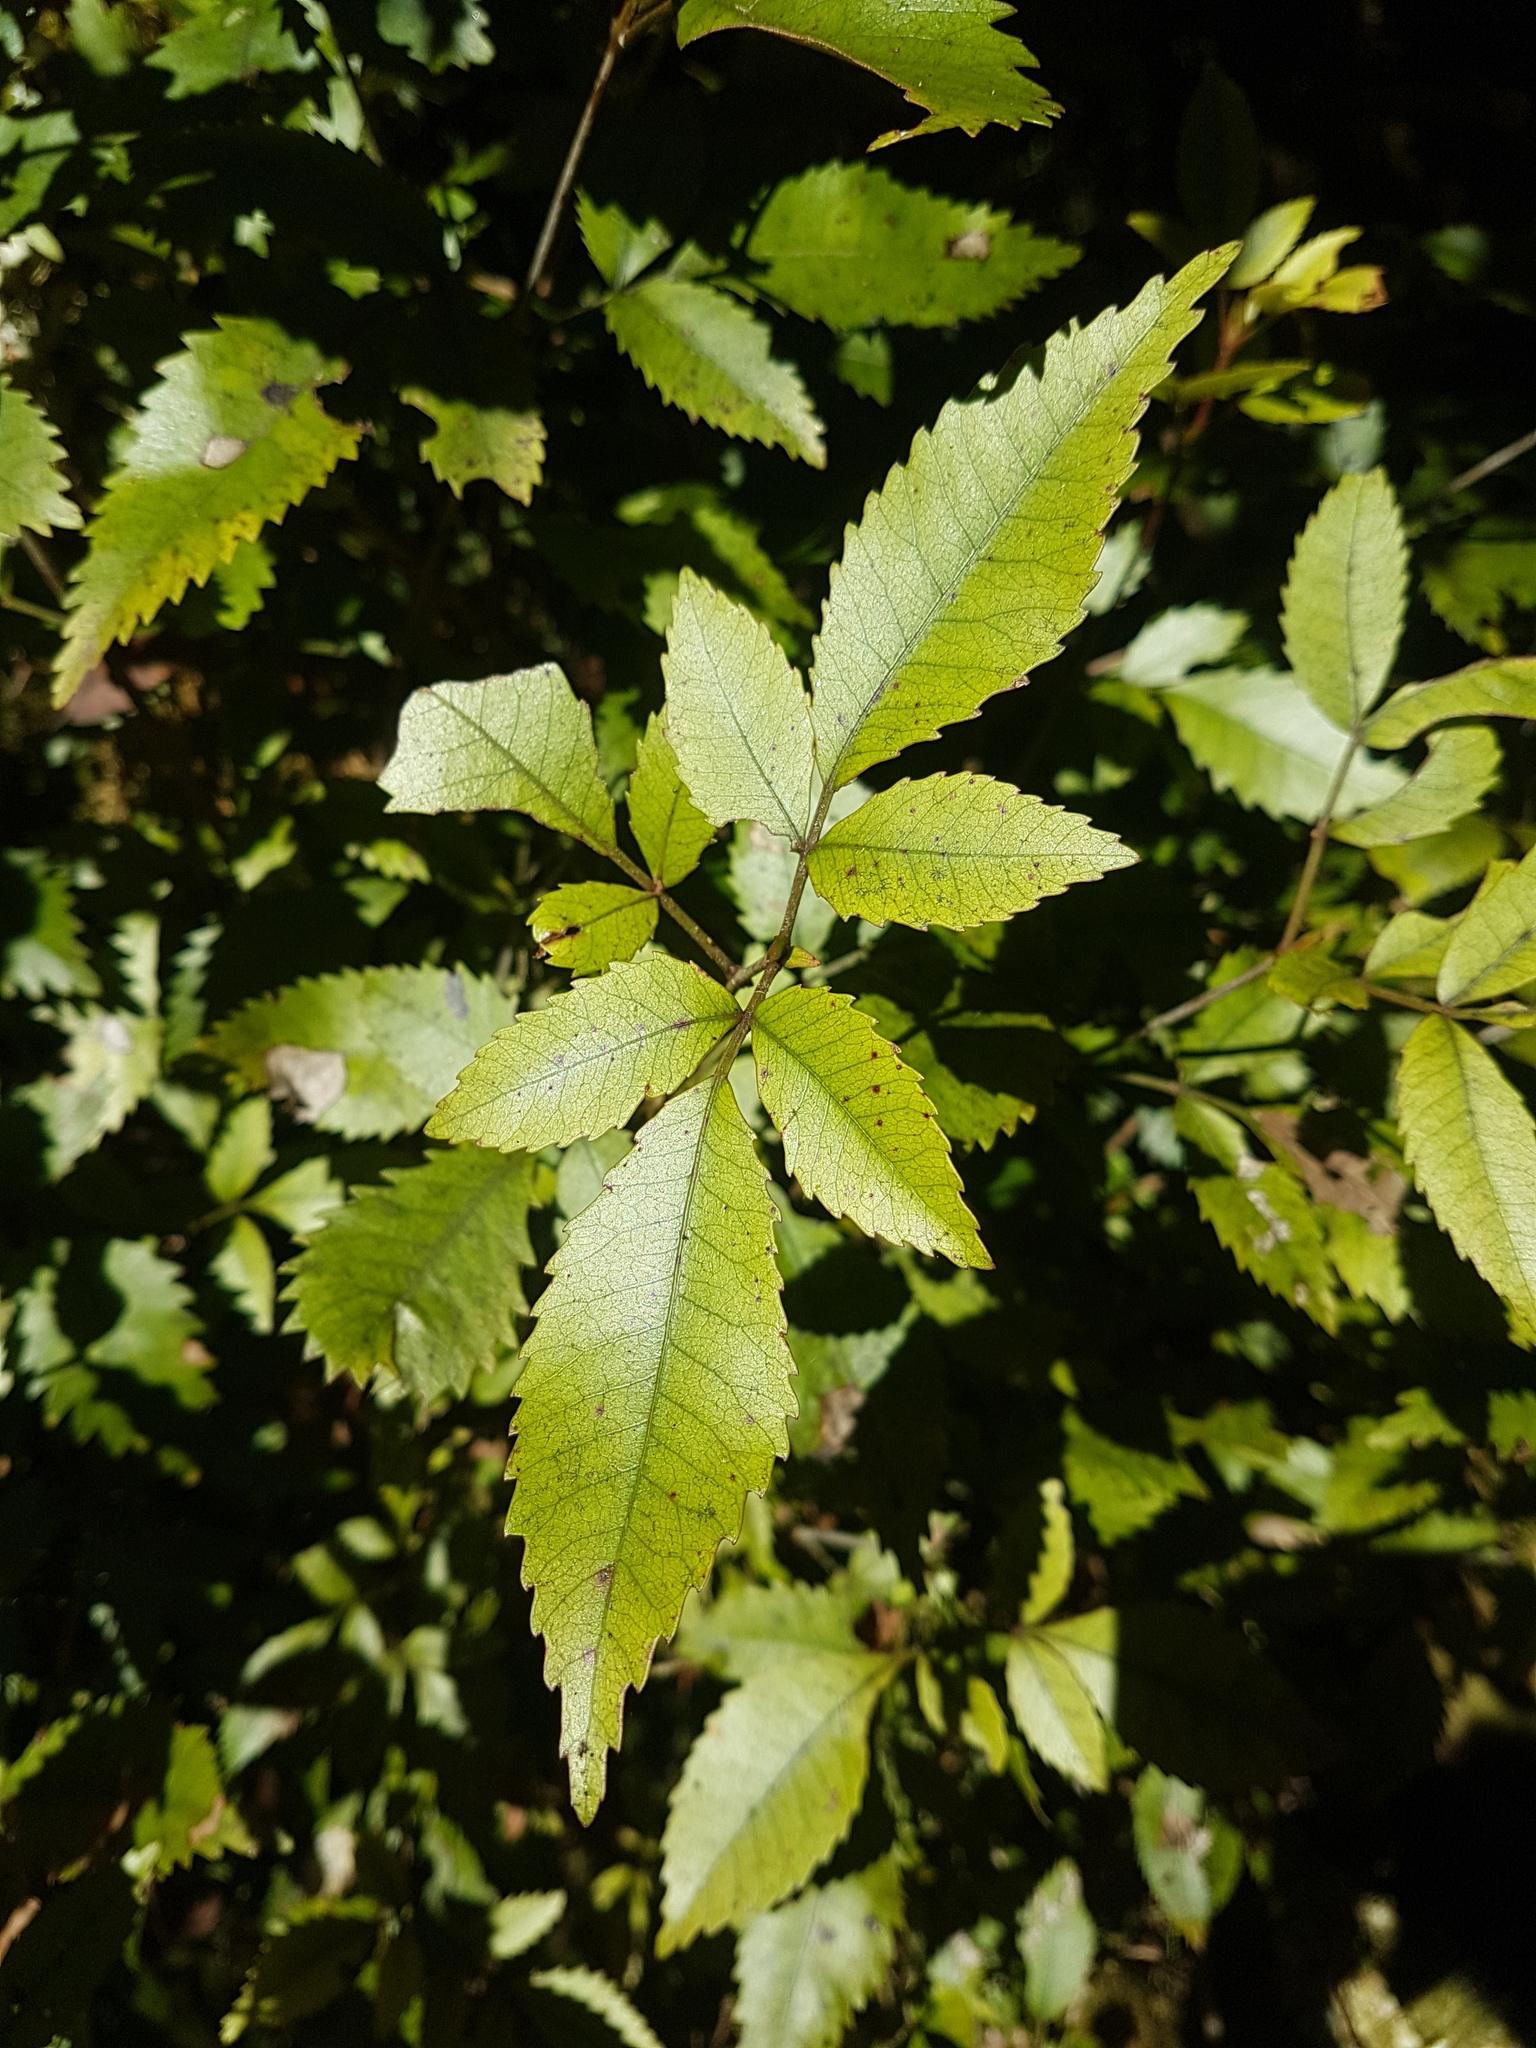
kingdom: Plantae
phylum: Tracheophyta
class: Magnoliopsida
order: Oxalidales
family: Cunoniaceae
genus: Pterophylla
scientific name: Pterophylla racemosa
